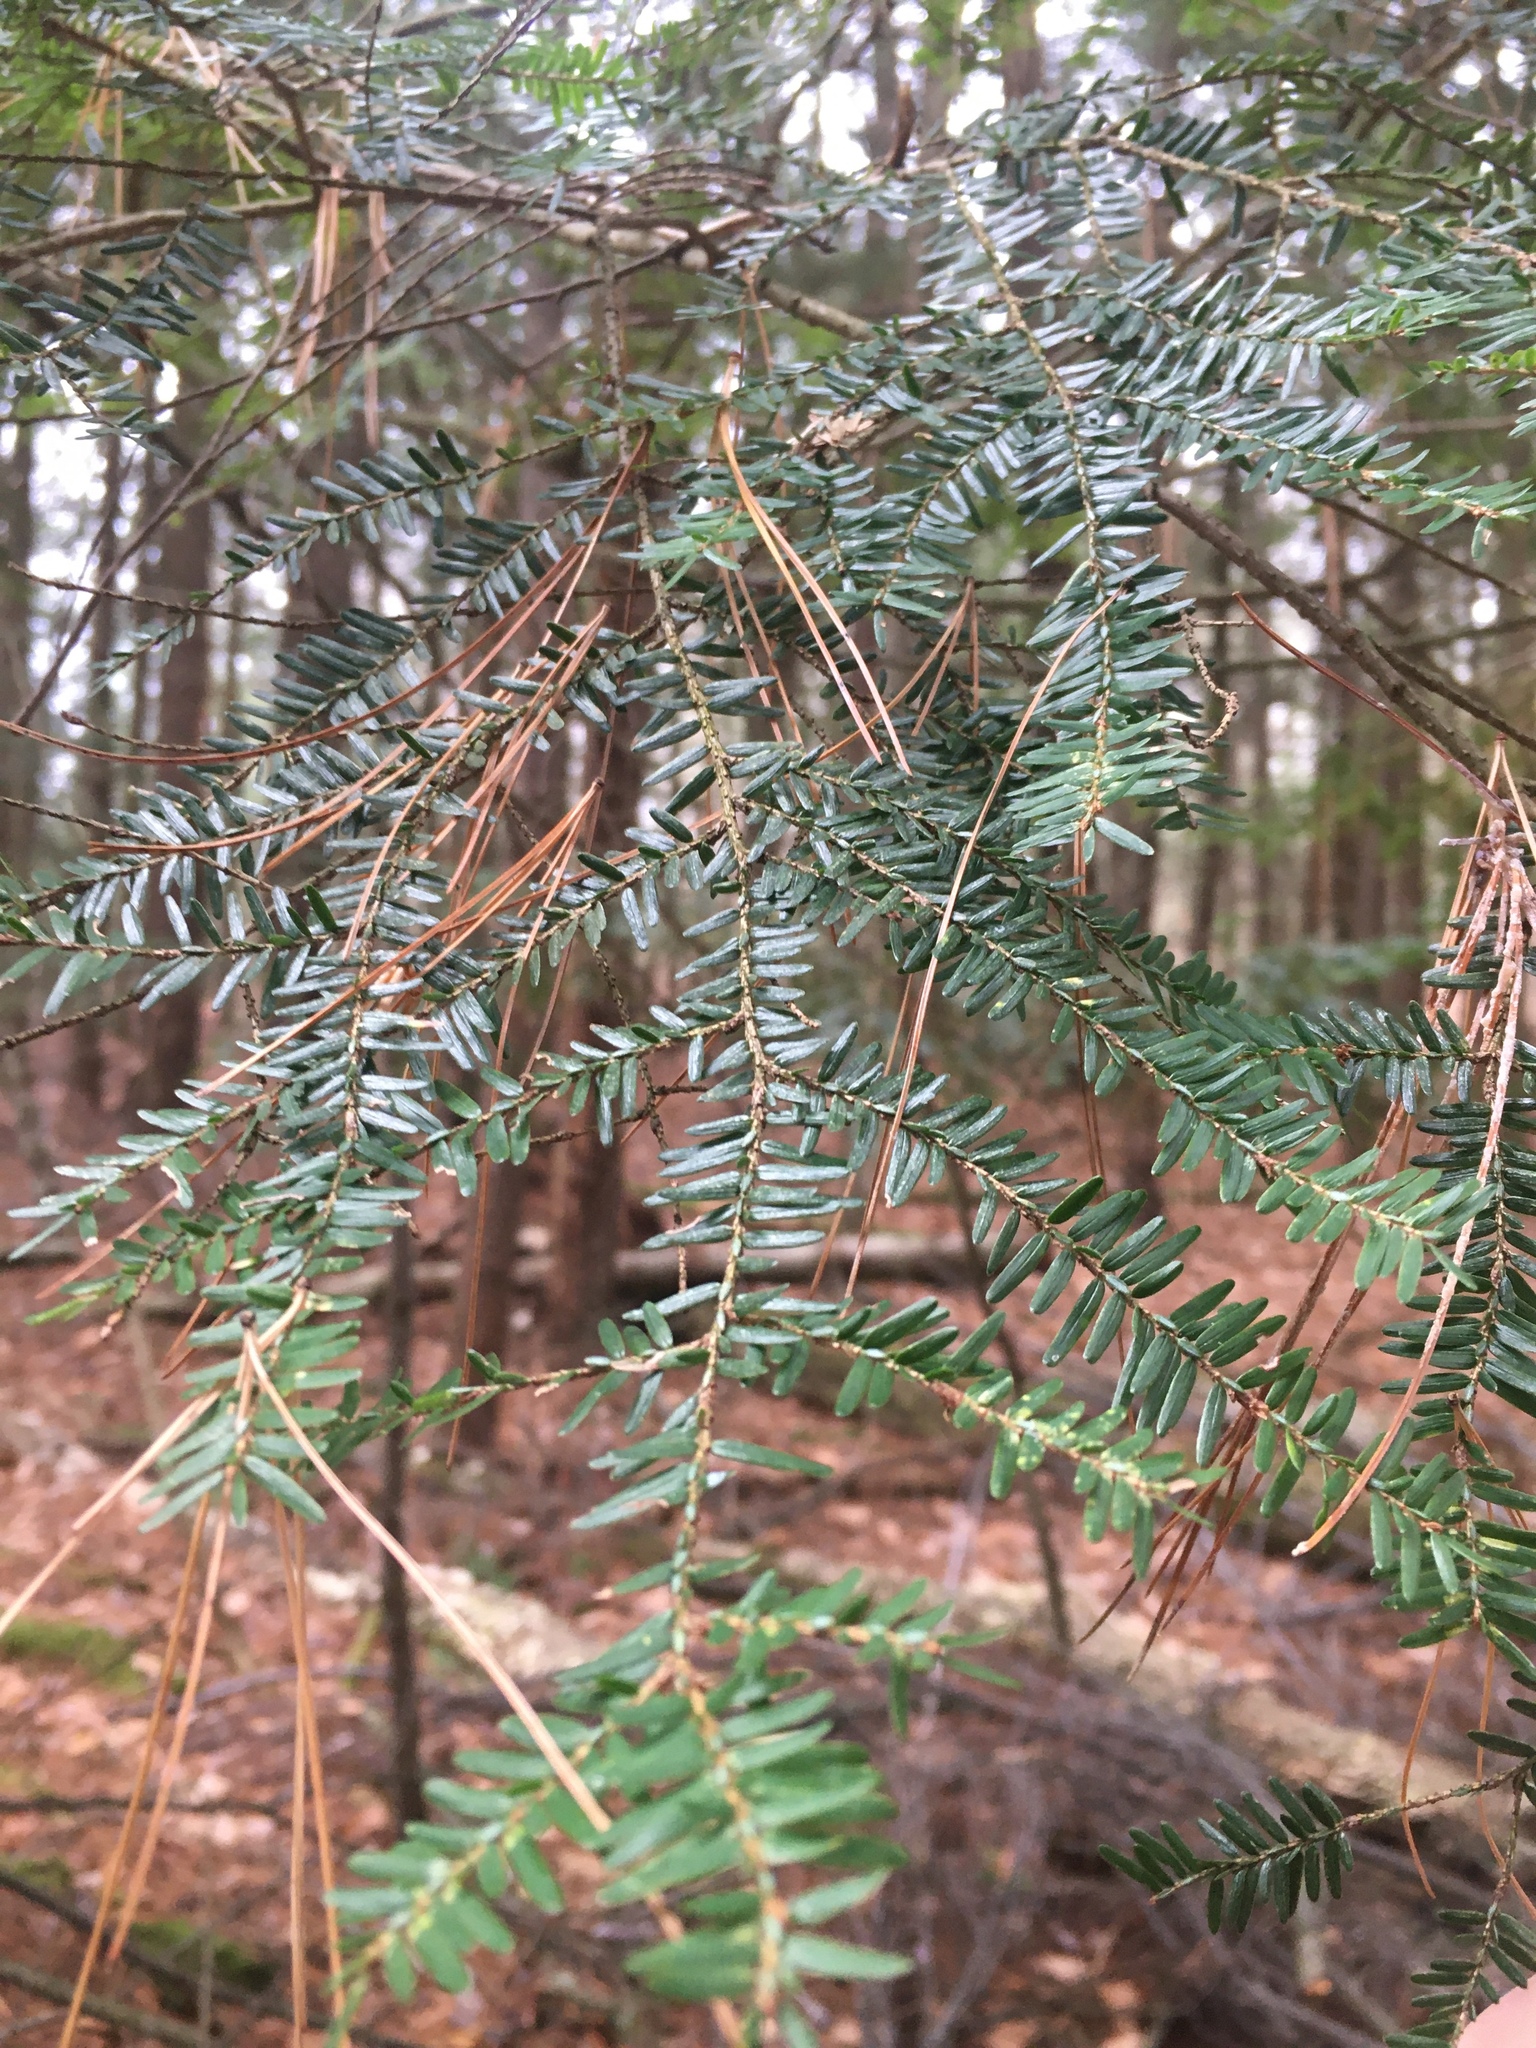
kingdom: Plantae
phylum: Tracheophyta
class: Pinopsida
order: Pinales
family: Pinaceae
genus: Tsuga
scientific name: Tsuga canadensis
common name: Eastern hemlock
